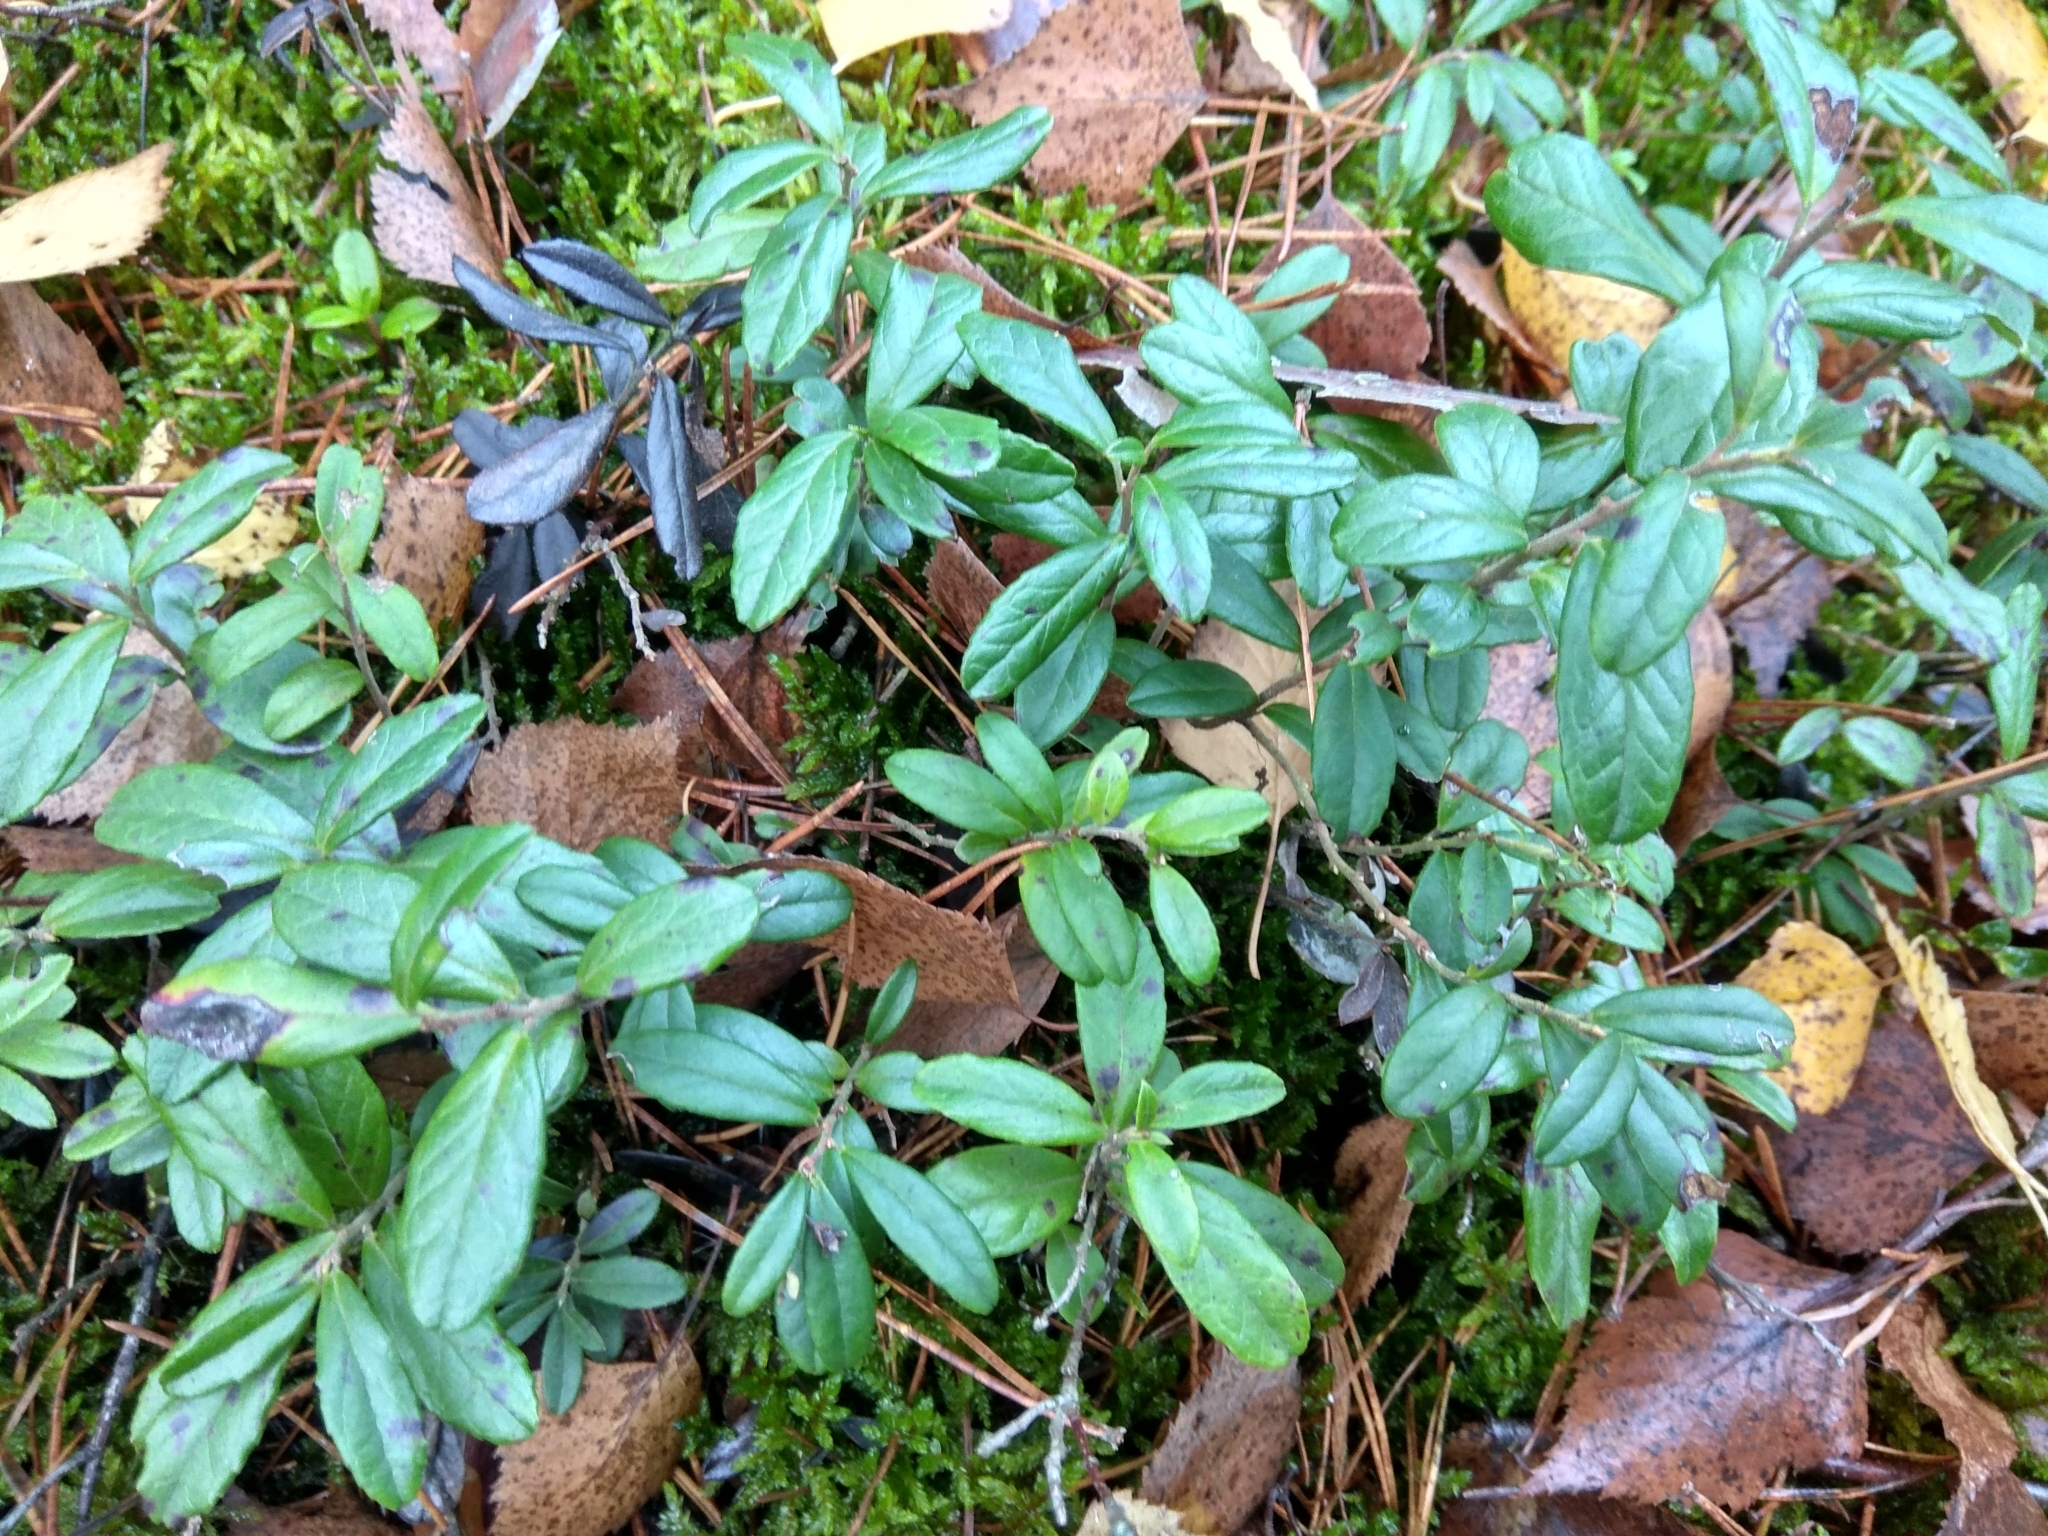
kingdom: Plantae
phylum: Tracheophyta
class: Magnoliopsida
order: Ericales
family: Ericaceae
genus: Vaccinium
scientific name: Vaccinium vitis-idaea
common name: Cowberry
